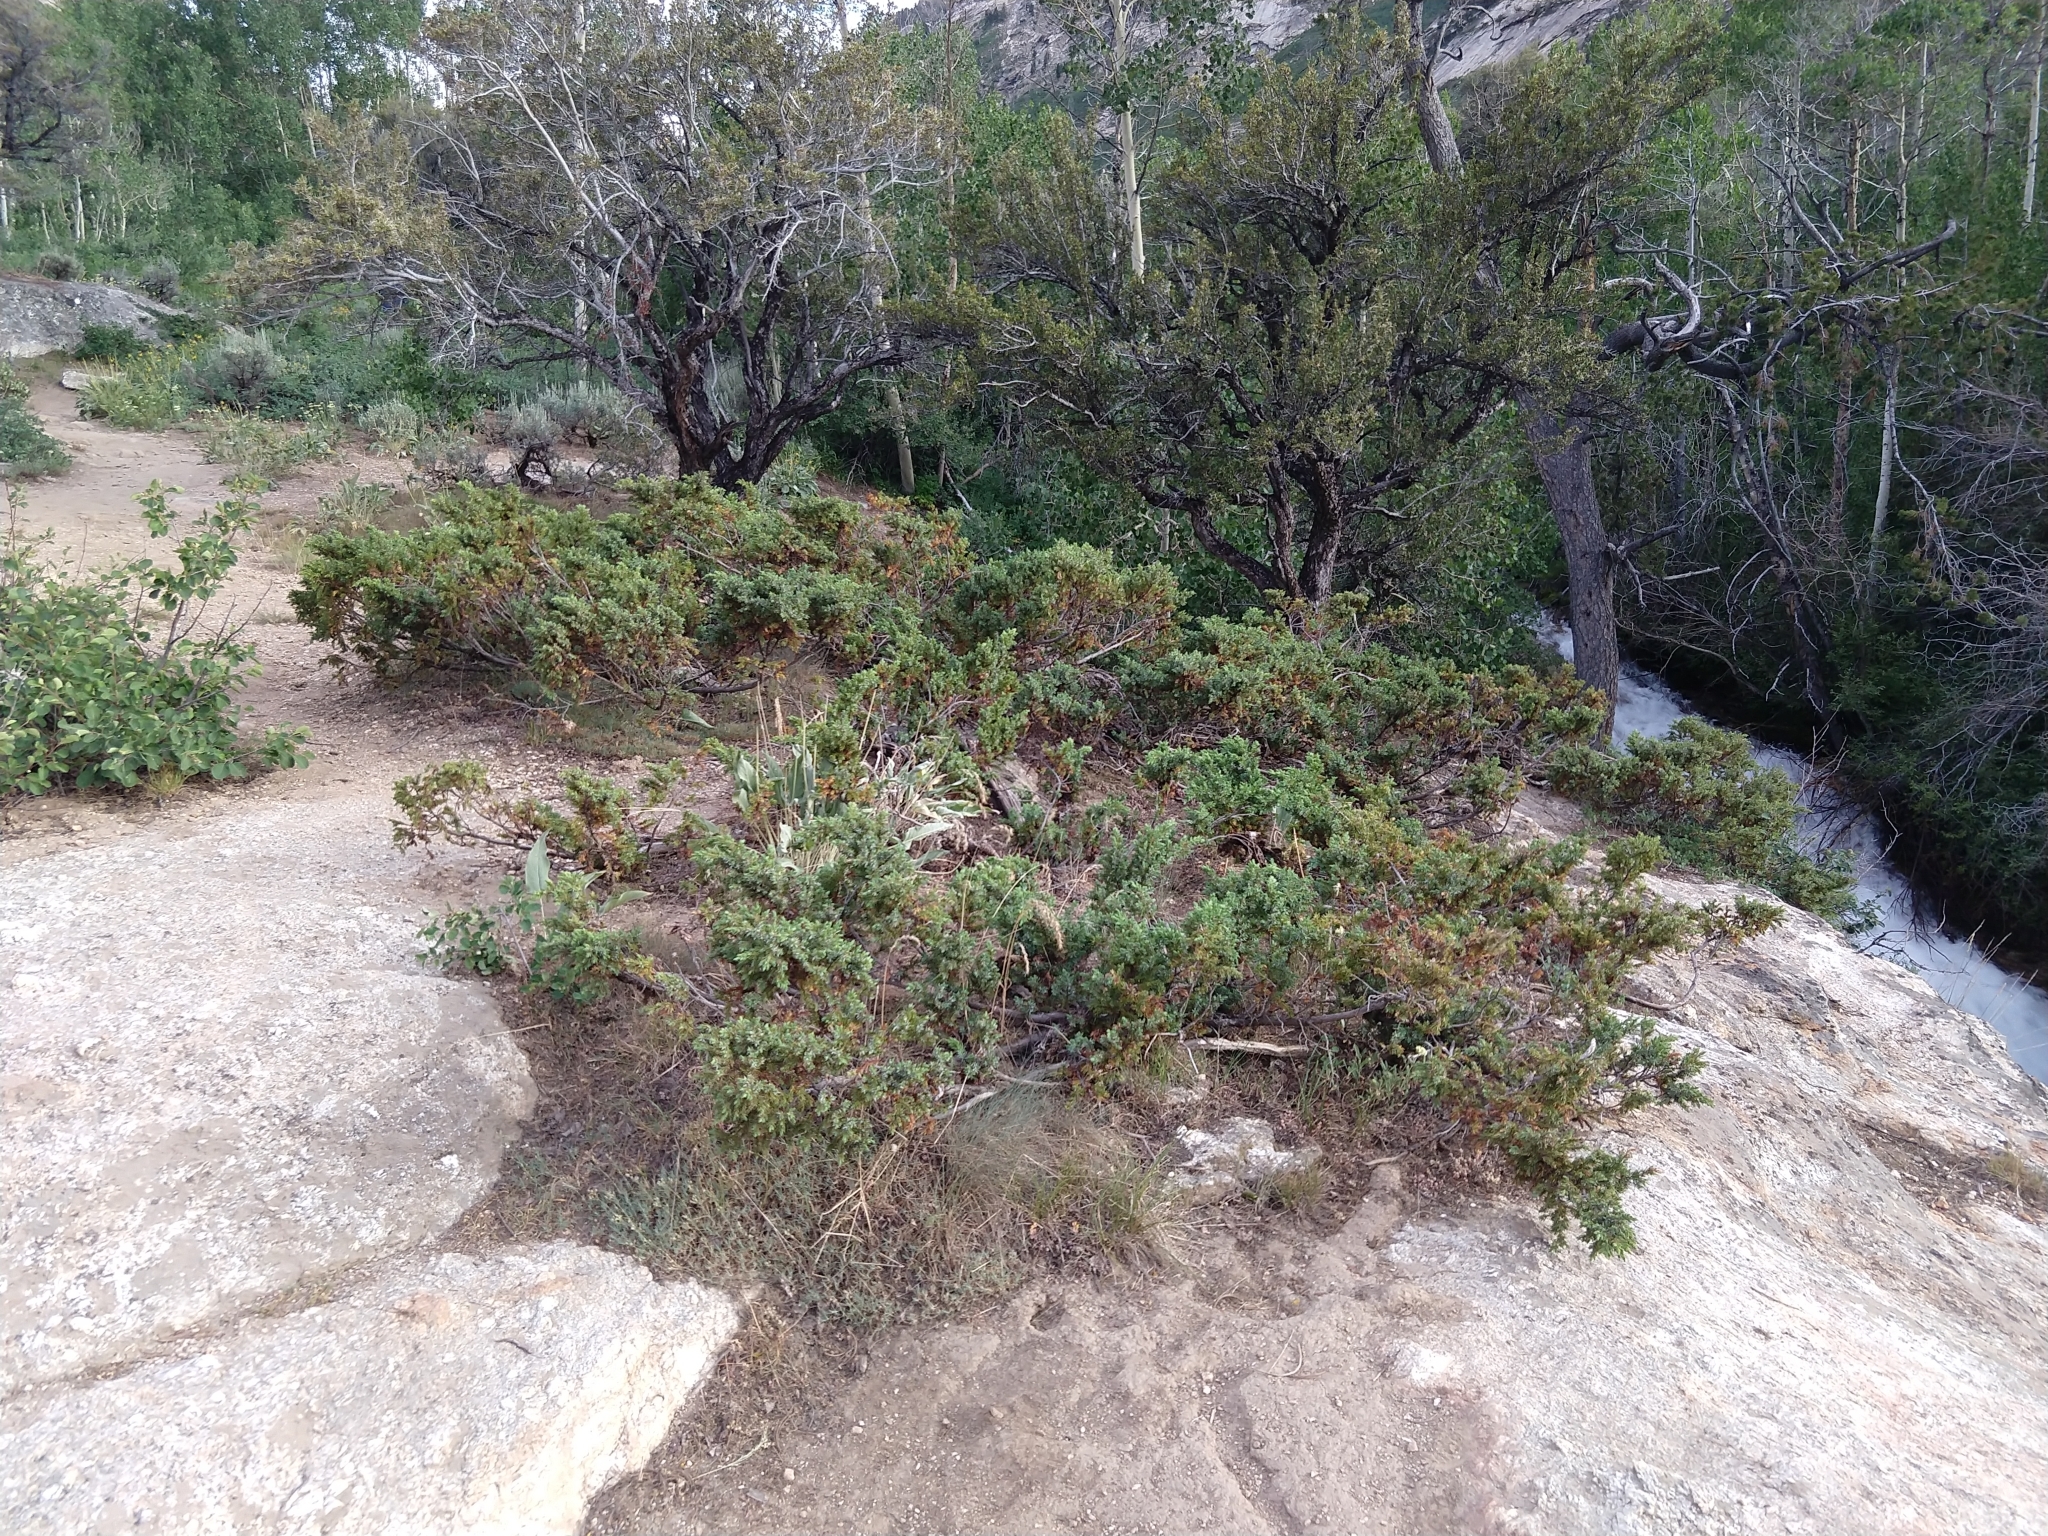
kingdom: Plantae
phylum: Tracheophyta
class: Pinopsida
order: Pinales
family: Cupressaceae
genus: Juniperus
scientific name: Juniperus communis
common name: Common juniper
